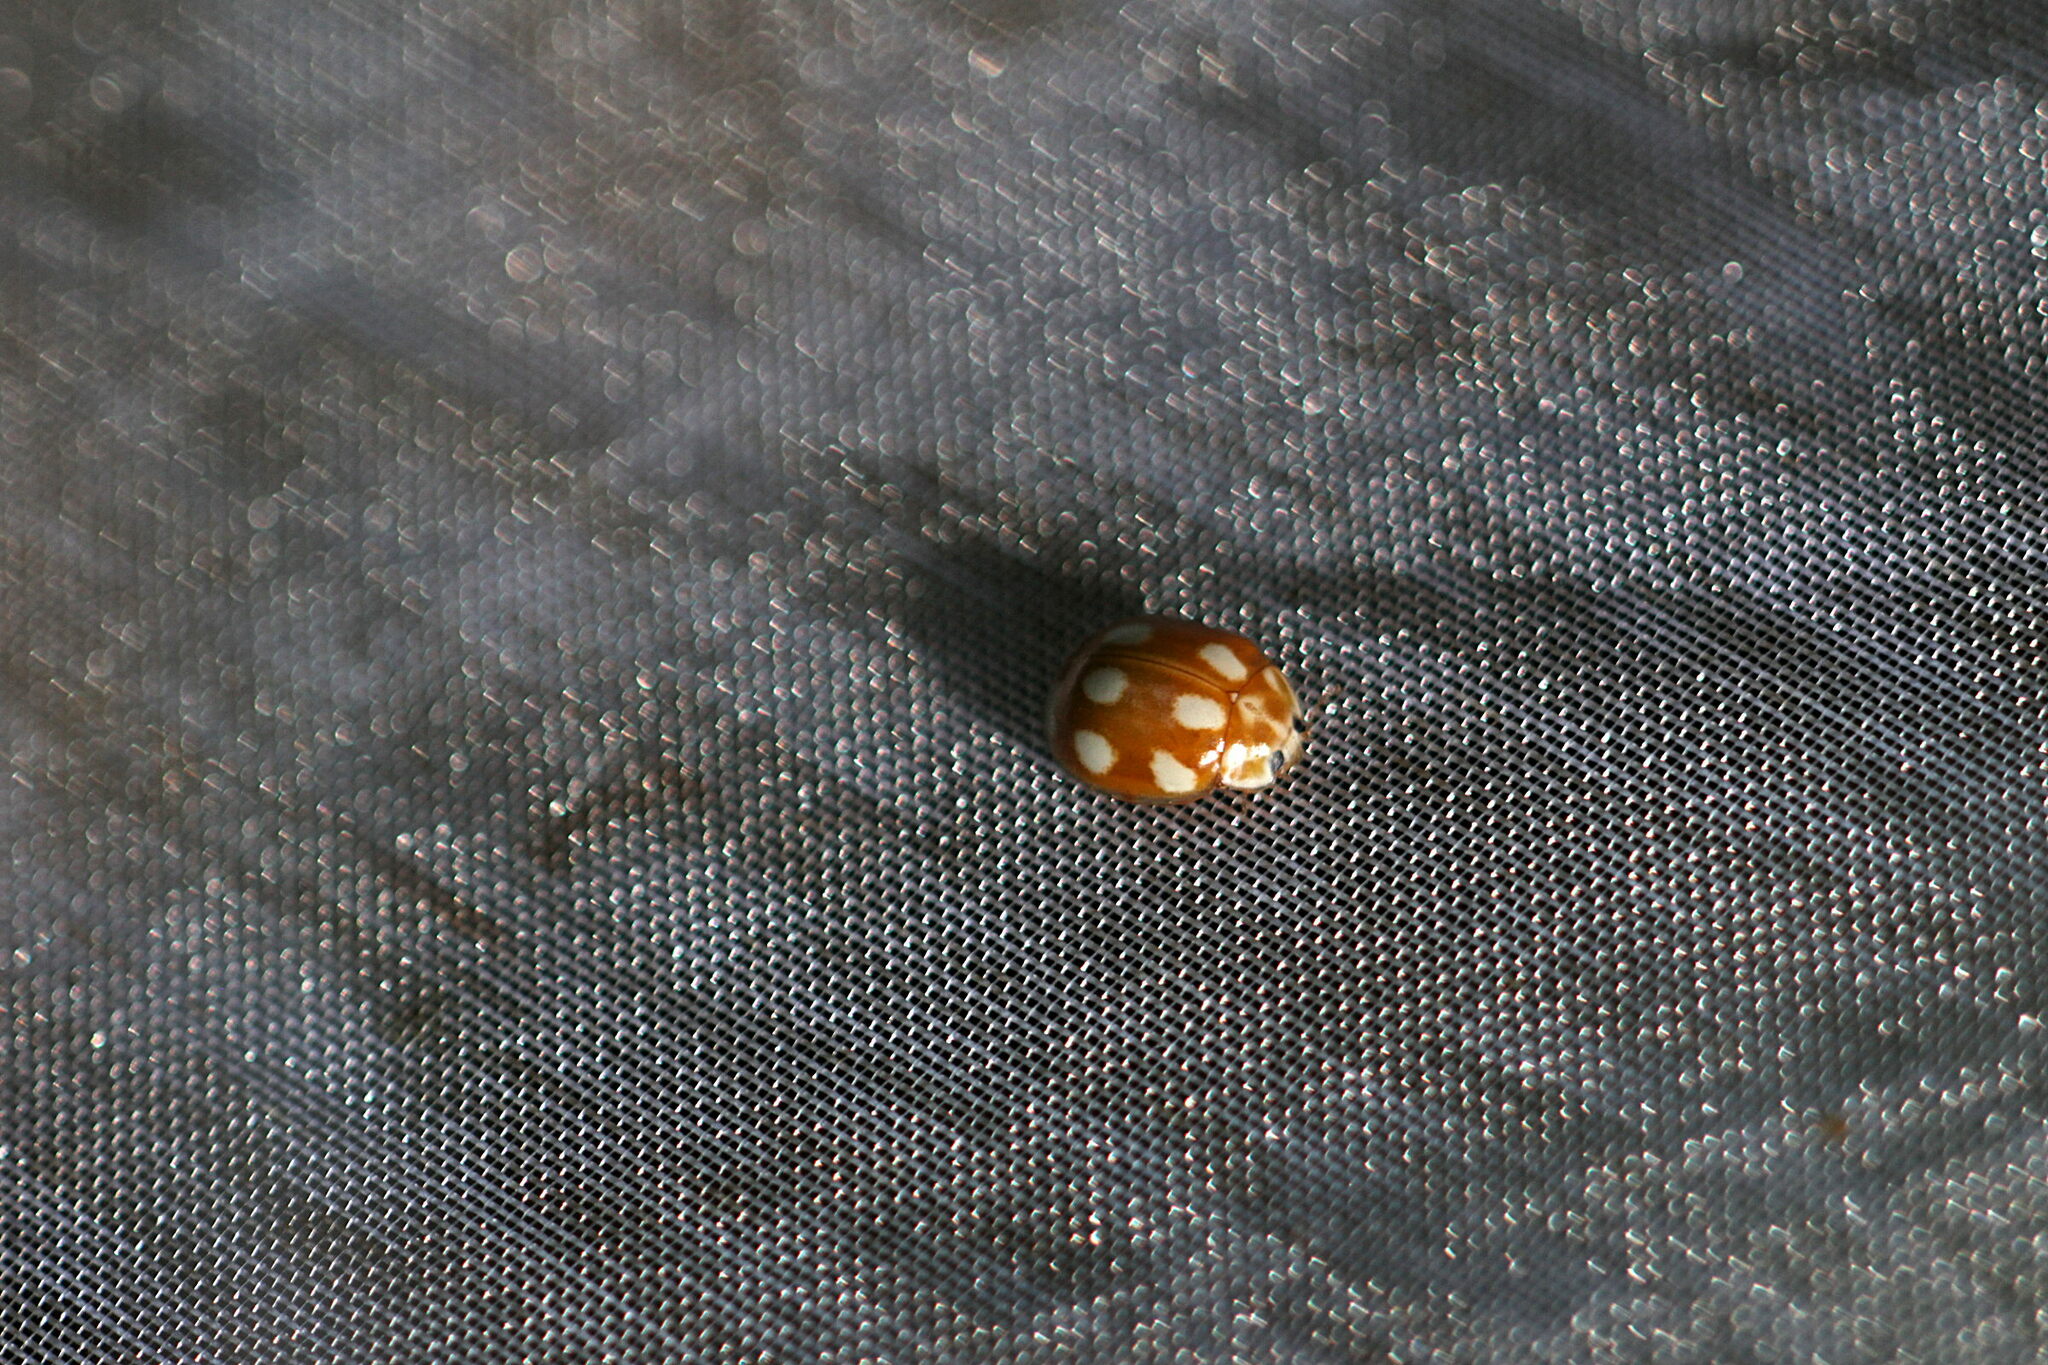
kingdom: Animalia
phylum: Arthropoda
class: Insecta
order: Coleoptera
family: Coccinellidae
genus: Calvia
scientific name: Calvia decemguttata
